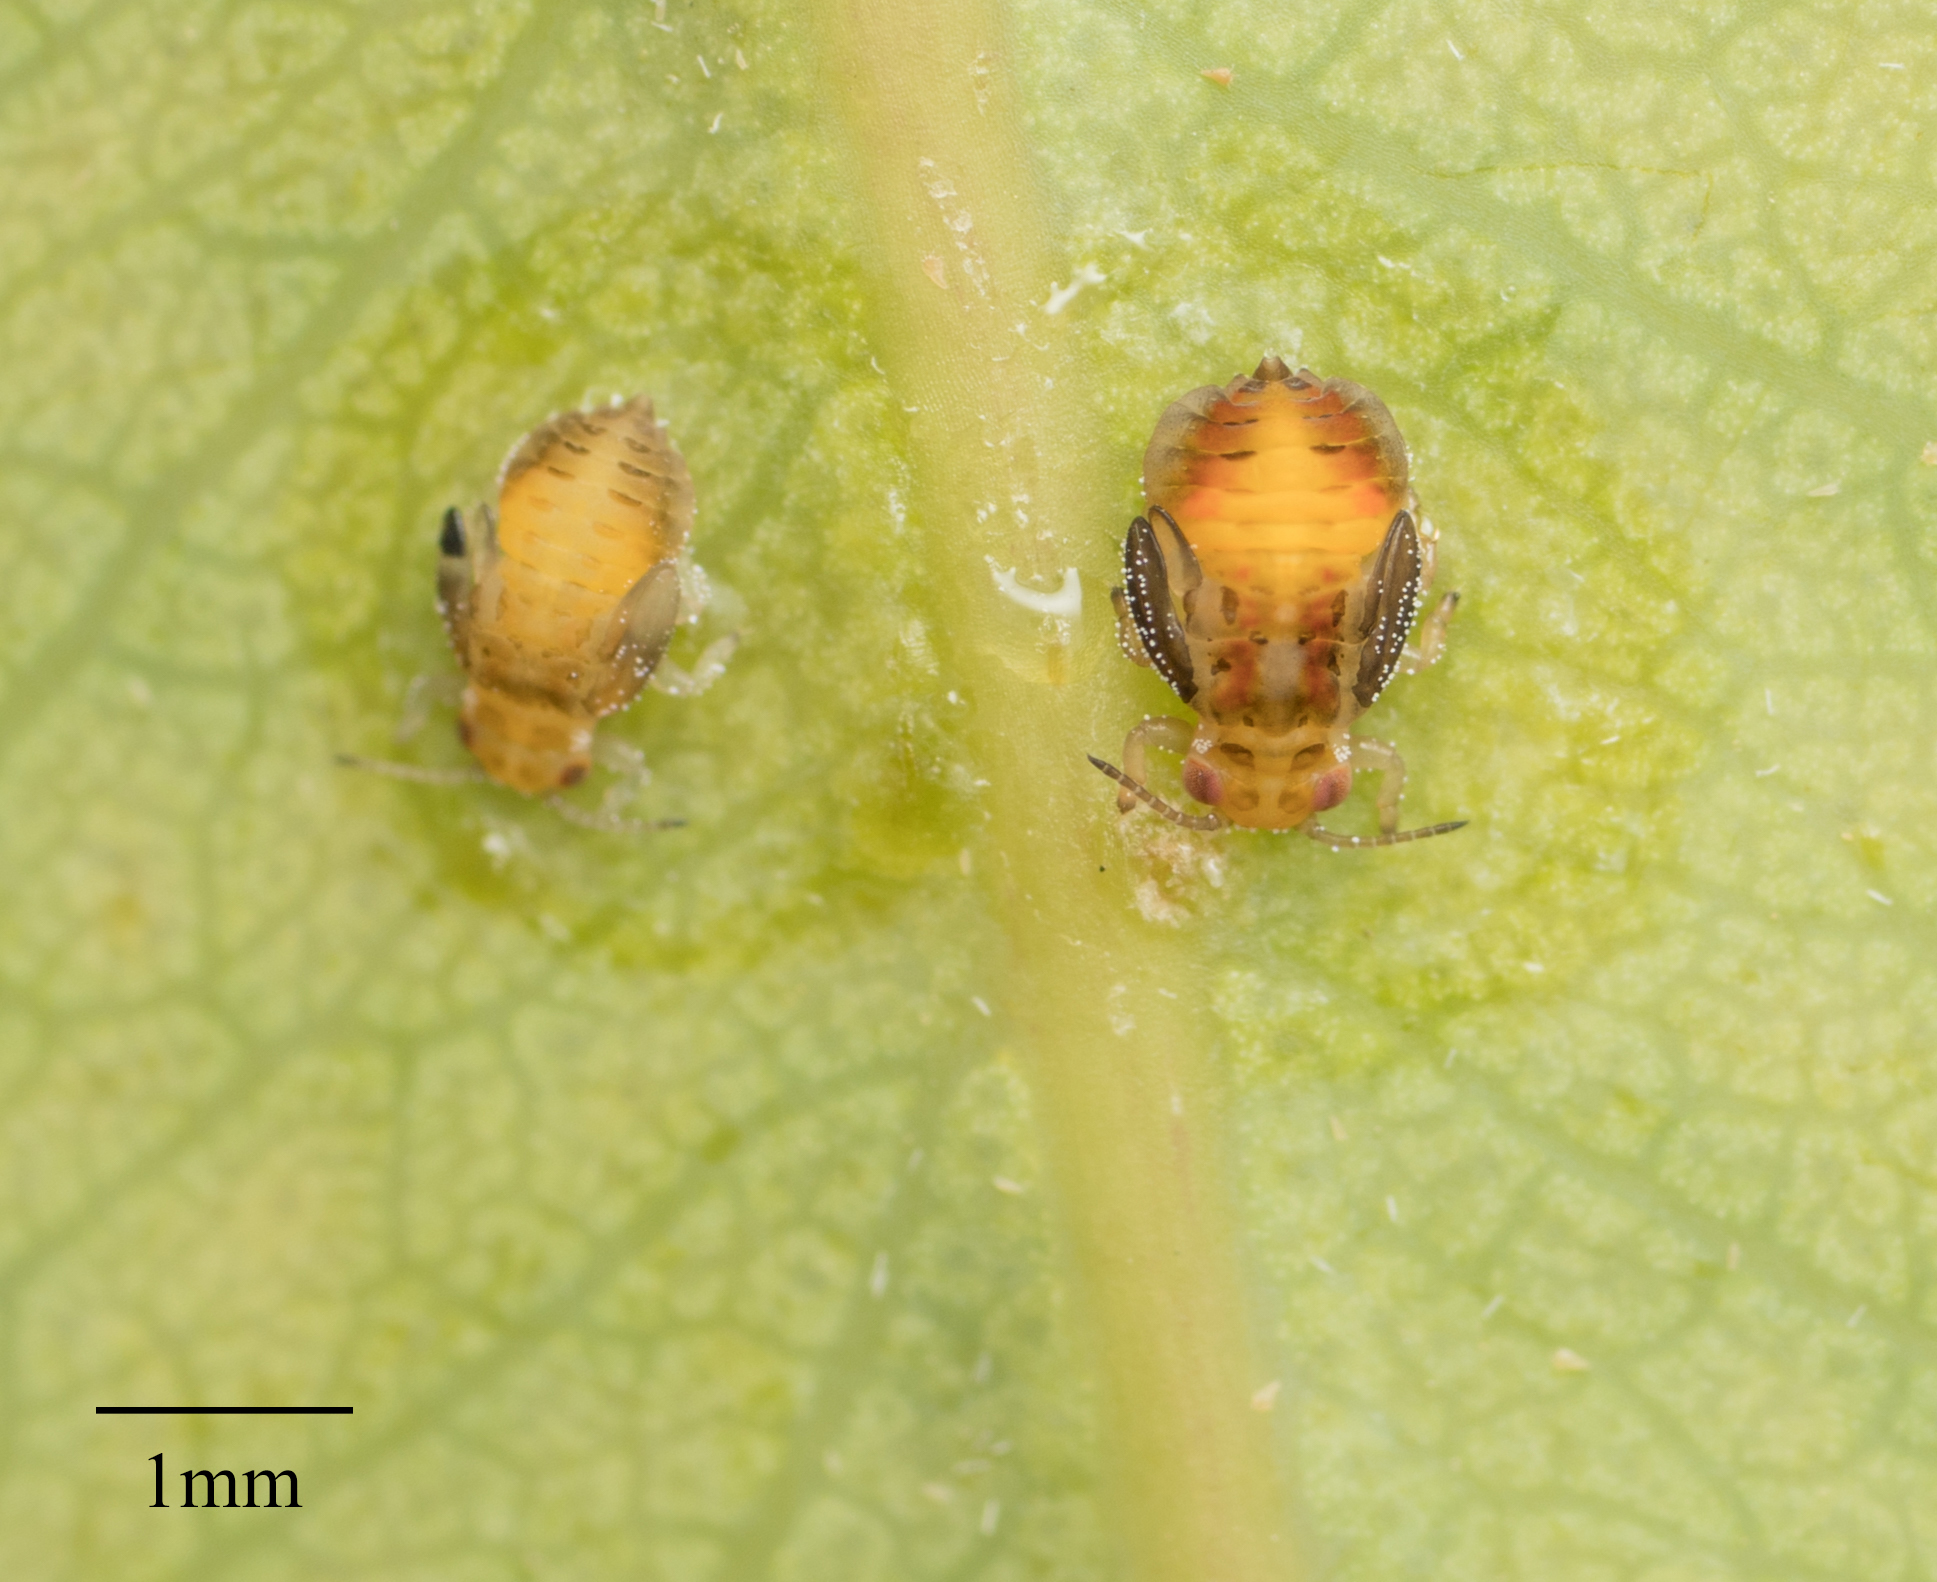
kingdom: Animalia
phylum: Arthropoda
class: Insecta
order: Hemiptera
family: Aphalaridae
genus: Glycaspis
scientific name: Glycaspis brimblecombei
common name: Red gum lerp psyllid
